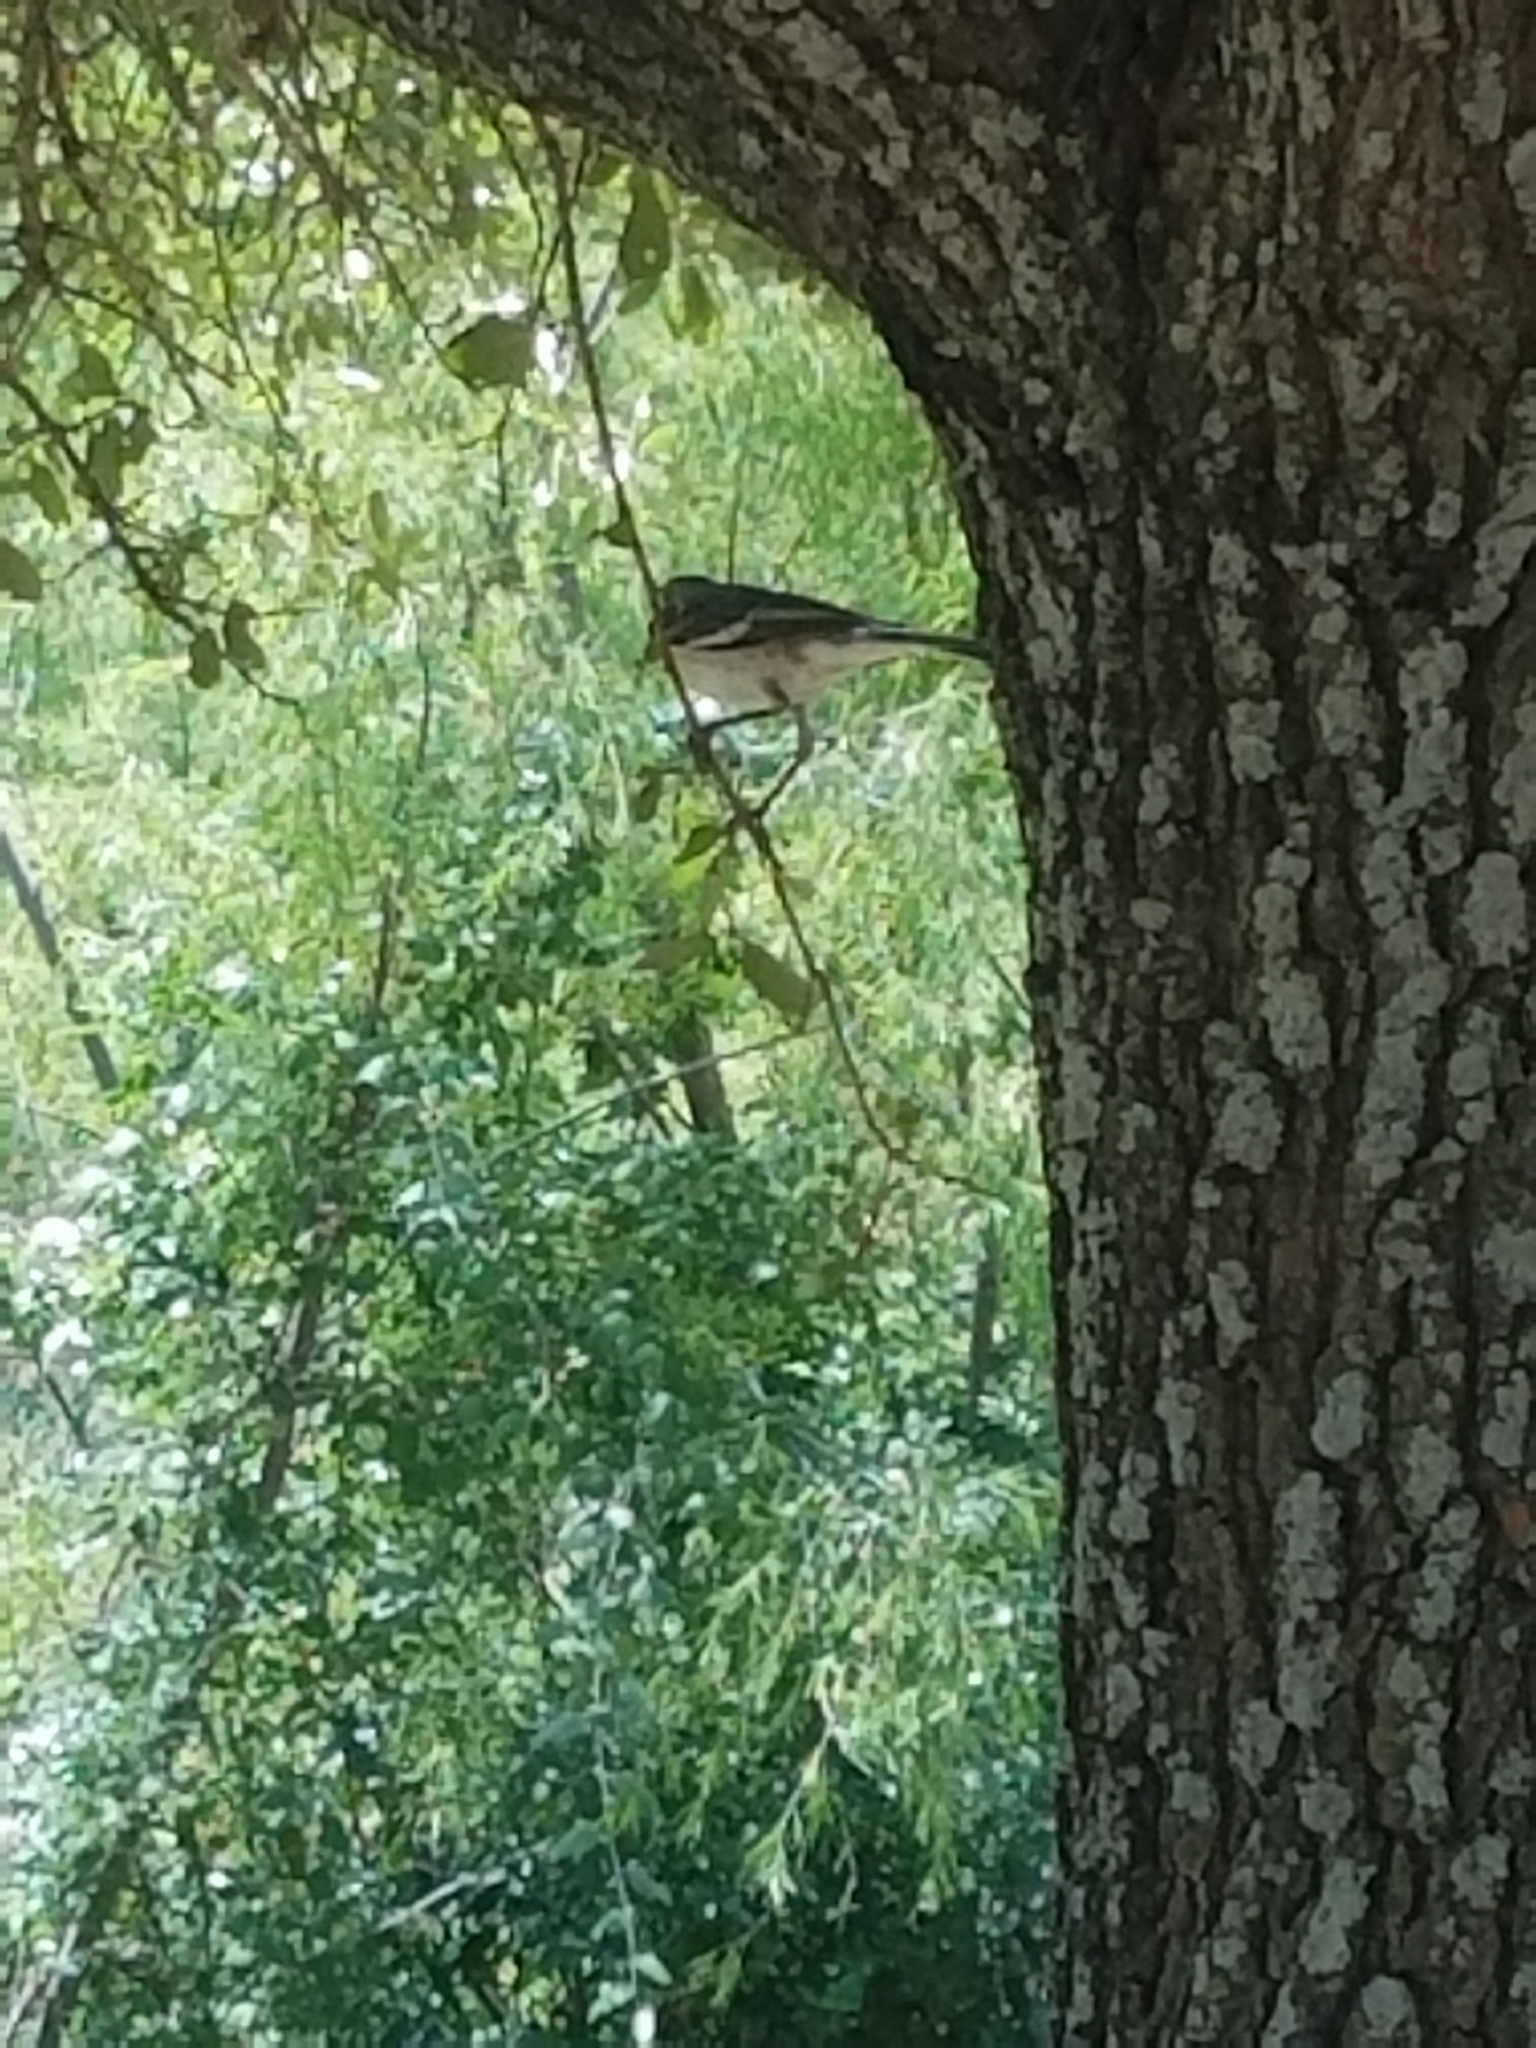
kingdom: Animalia
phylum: Chordata
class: Aves
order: Passeriformes
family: Mimidae
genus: Mimus
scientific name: Mimus polyglottos
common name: Northern mockingbird
